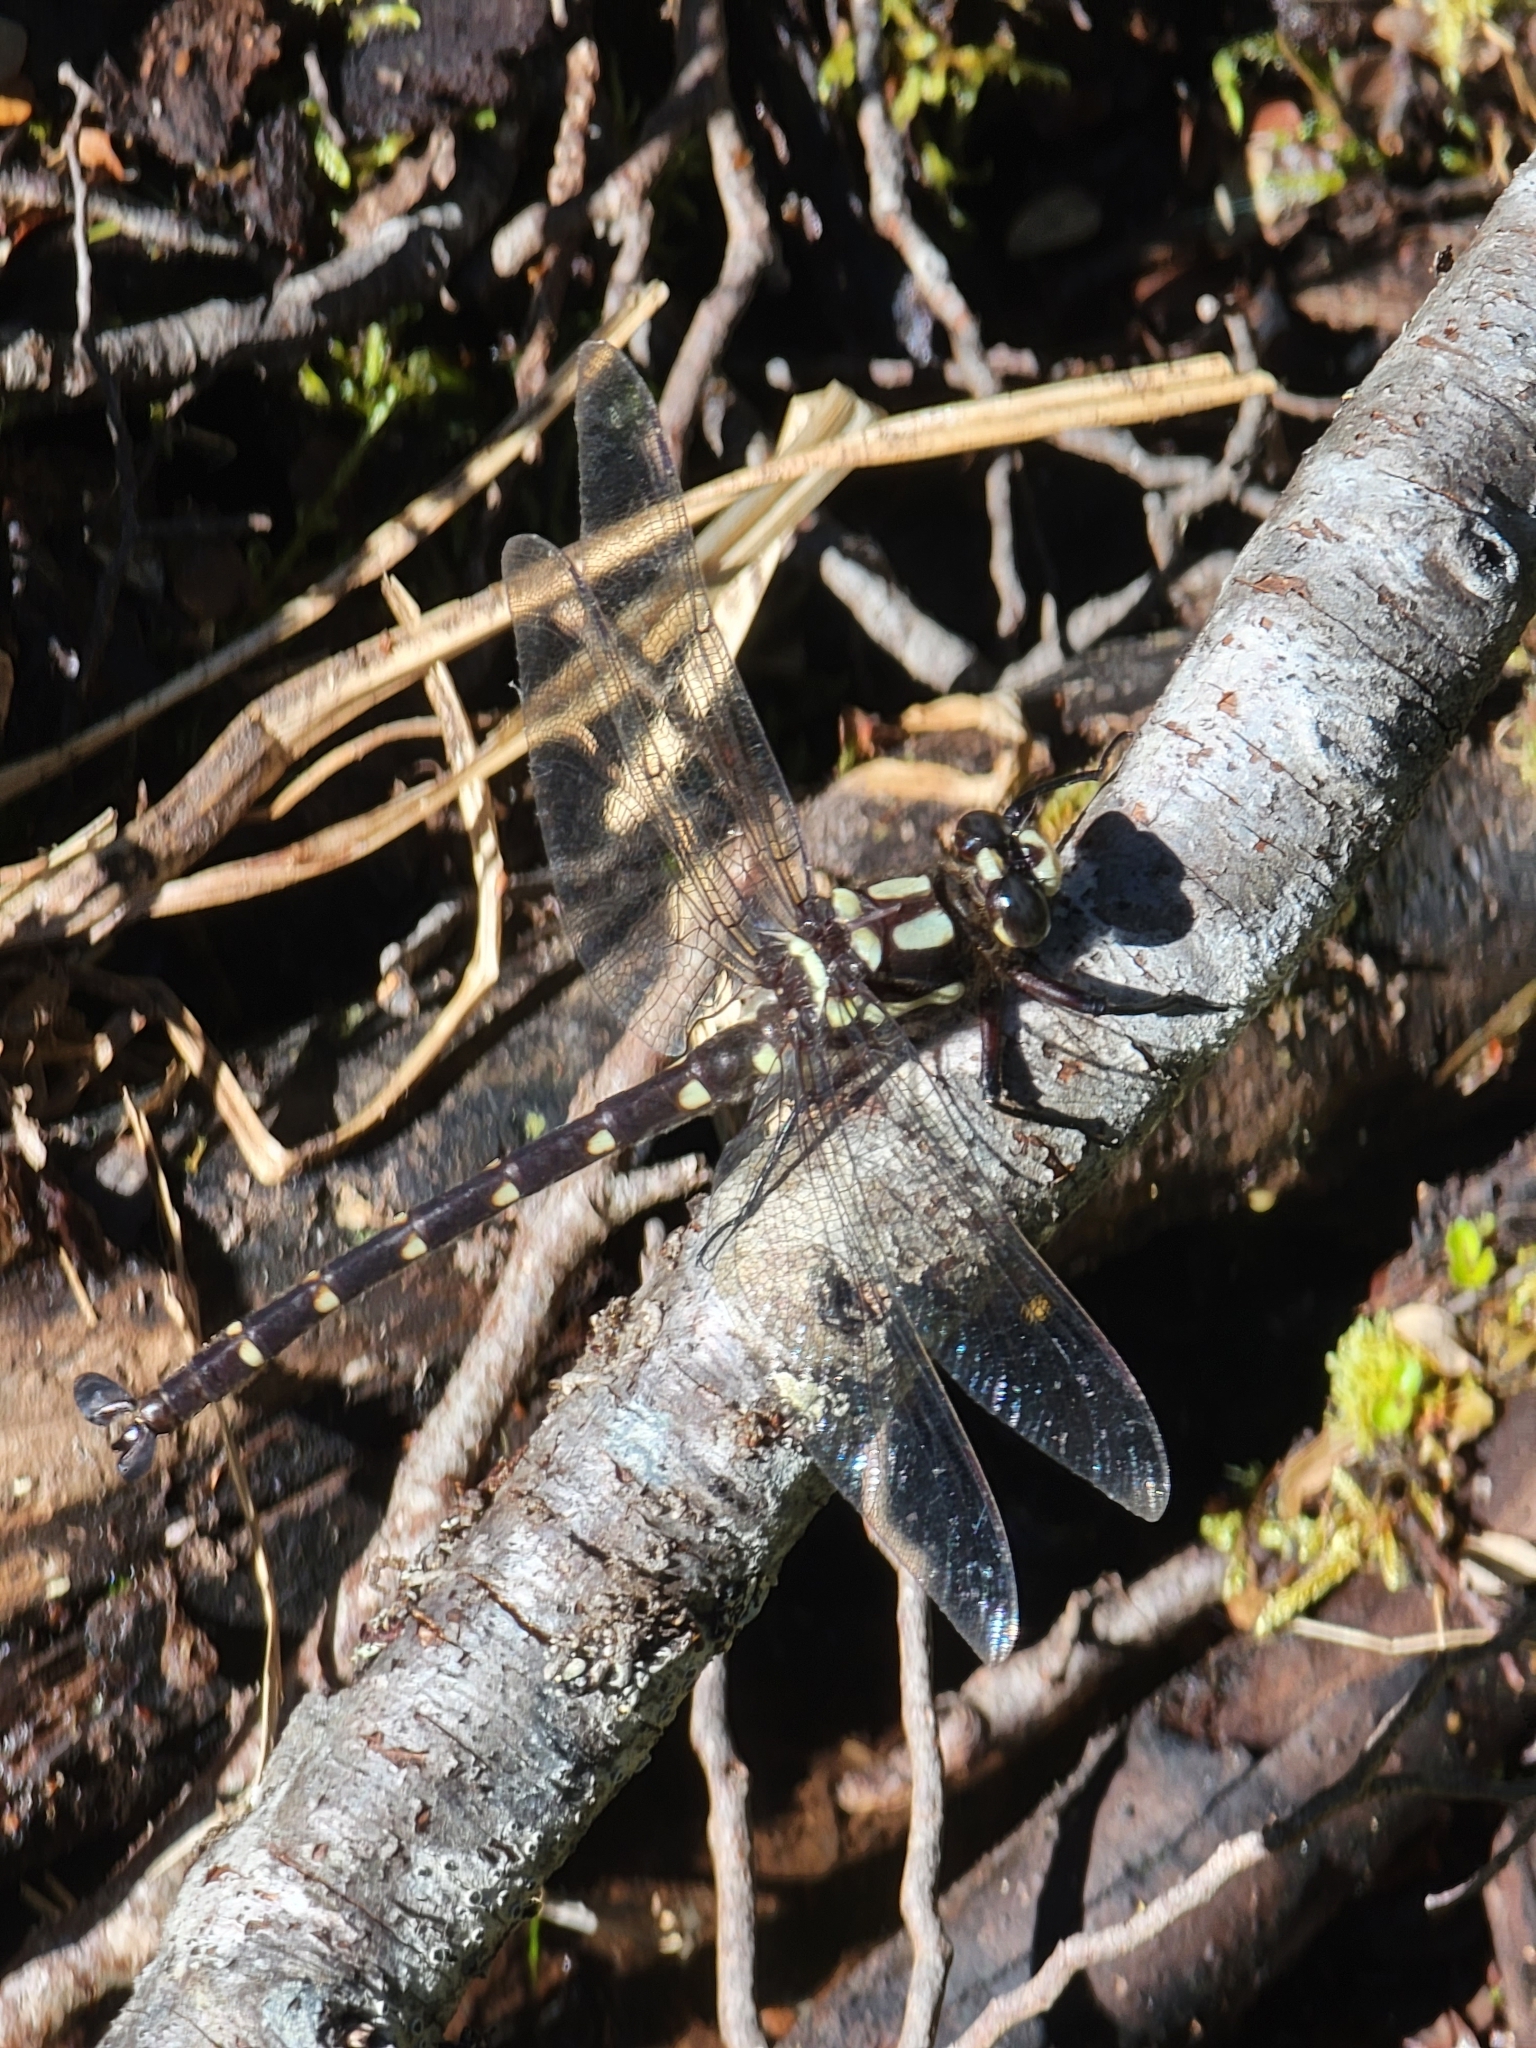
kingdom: Animalia
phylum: Arthropoda
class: Insecta
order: Odonata
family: Petaluridae
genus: Uropetala
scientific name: Uropetala carovei
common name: Bush giant dragonfly
